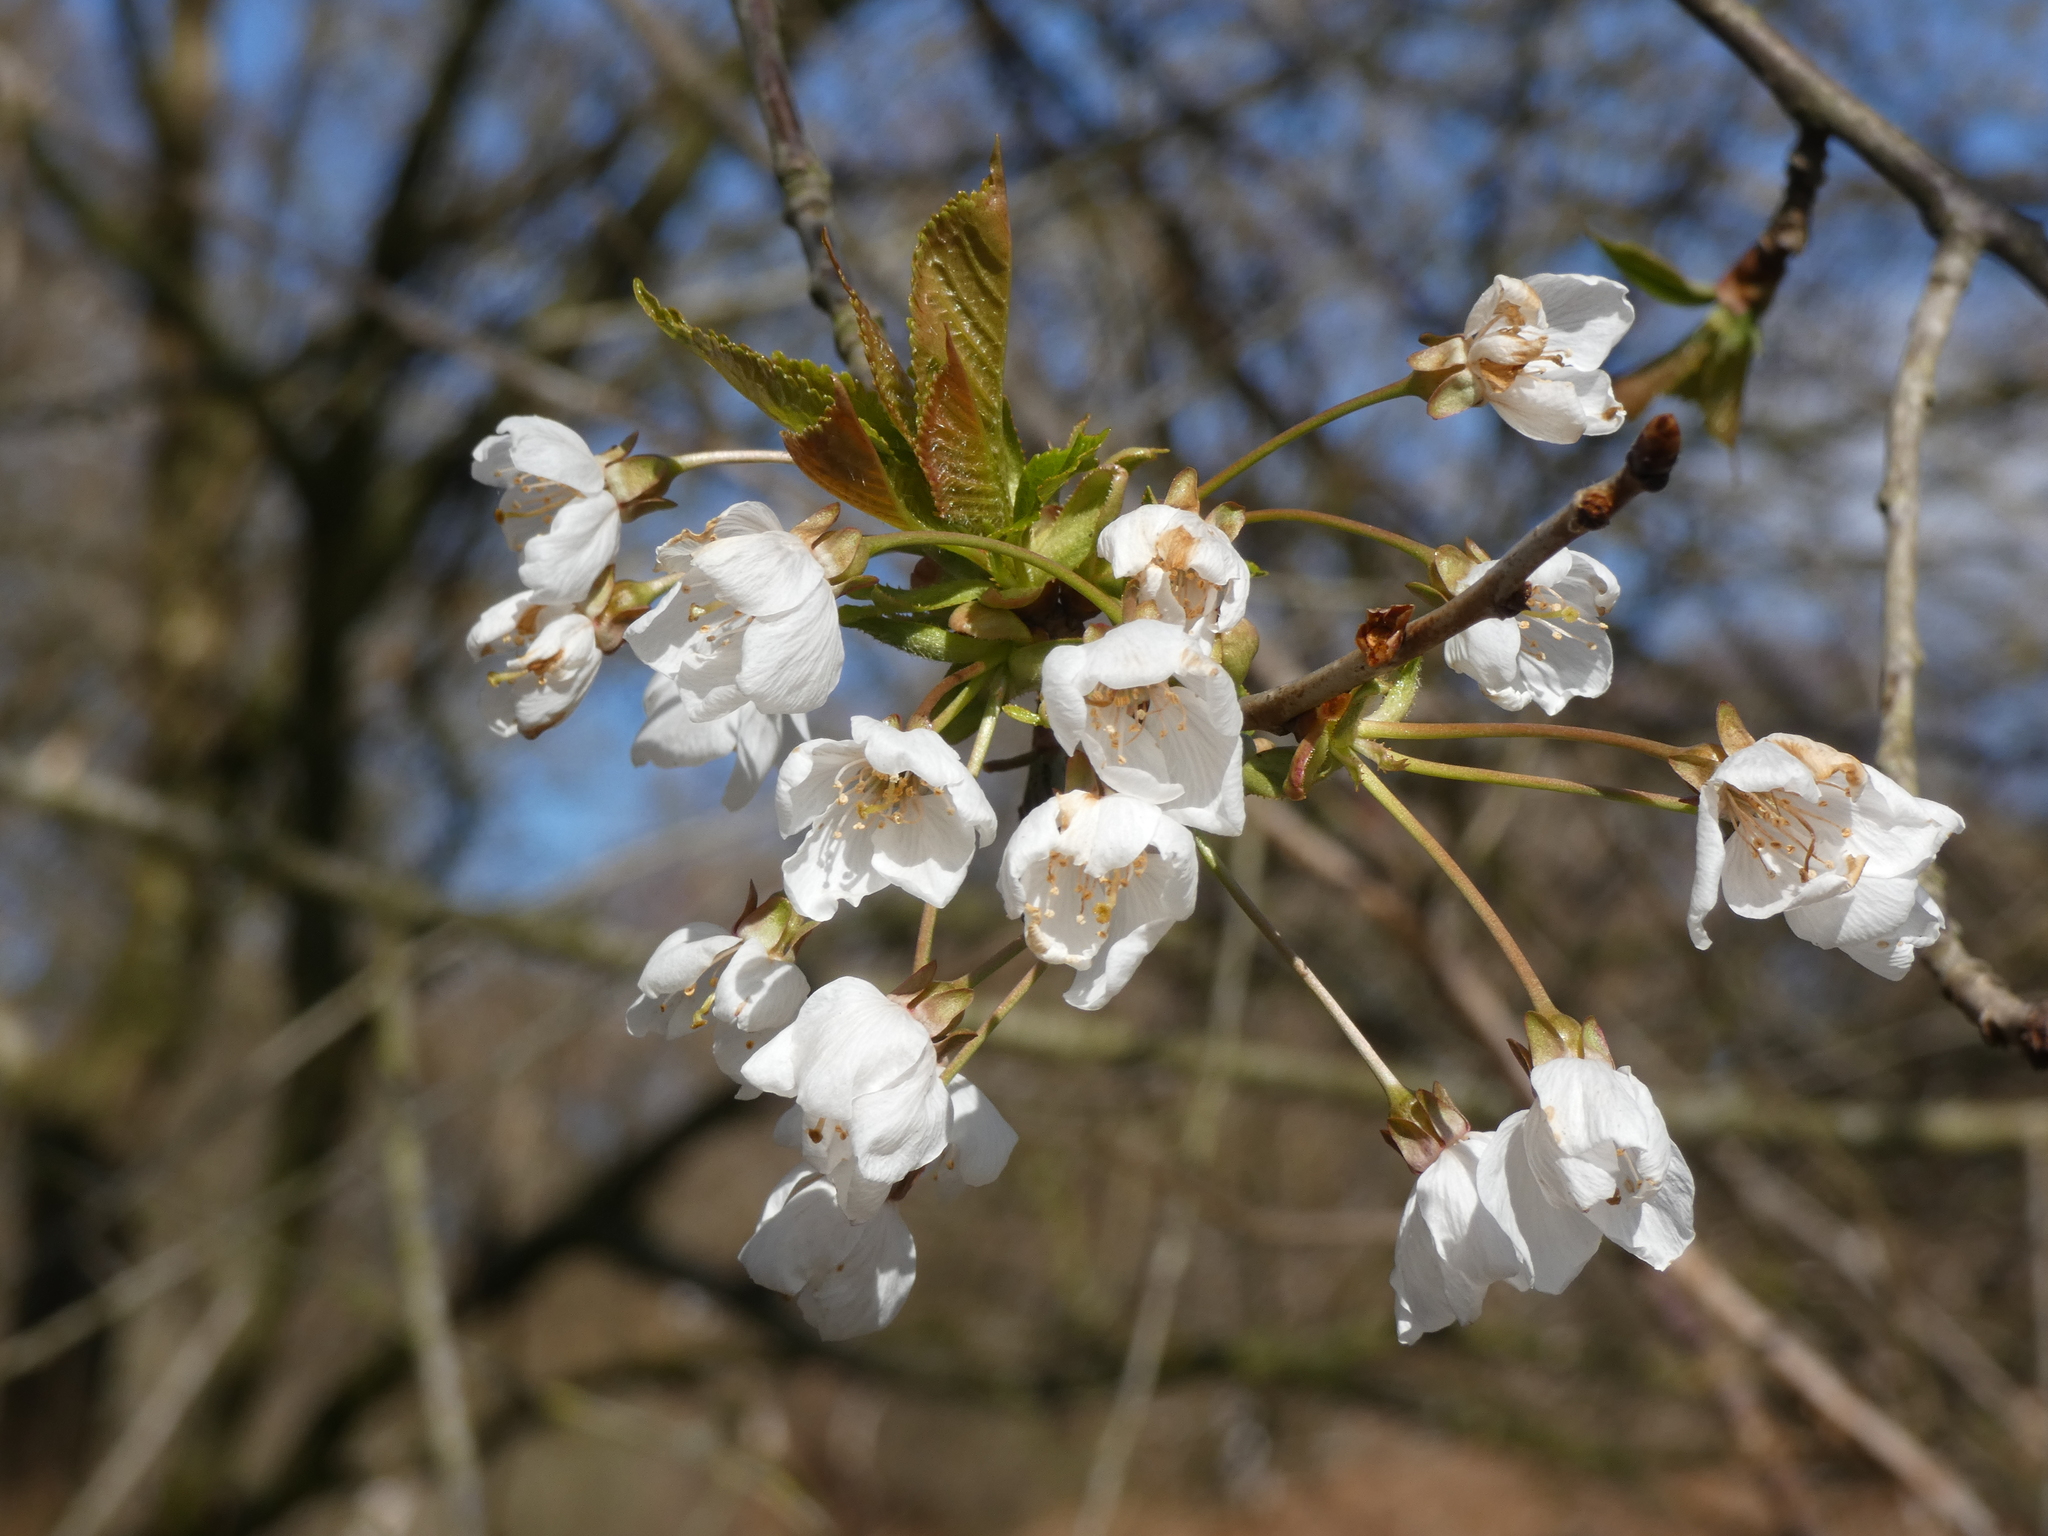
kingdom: Plantae
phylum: Tracheophyta
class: Magnoliopsida
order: Rosales
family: Rosaceae
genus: Prunus
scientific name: Prunus avium
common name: Sweet cherry
